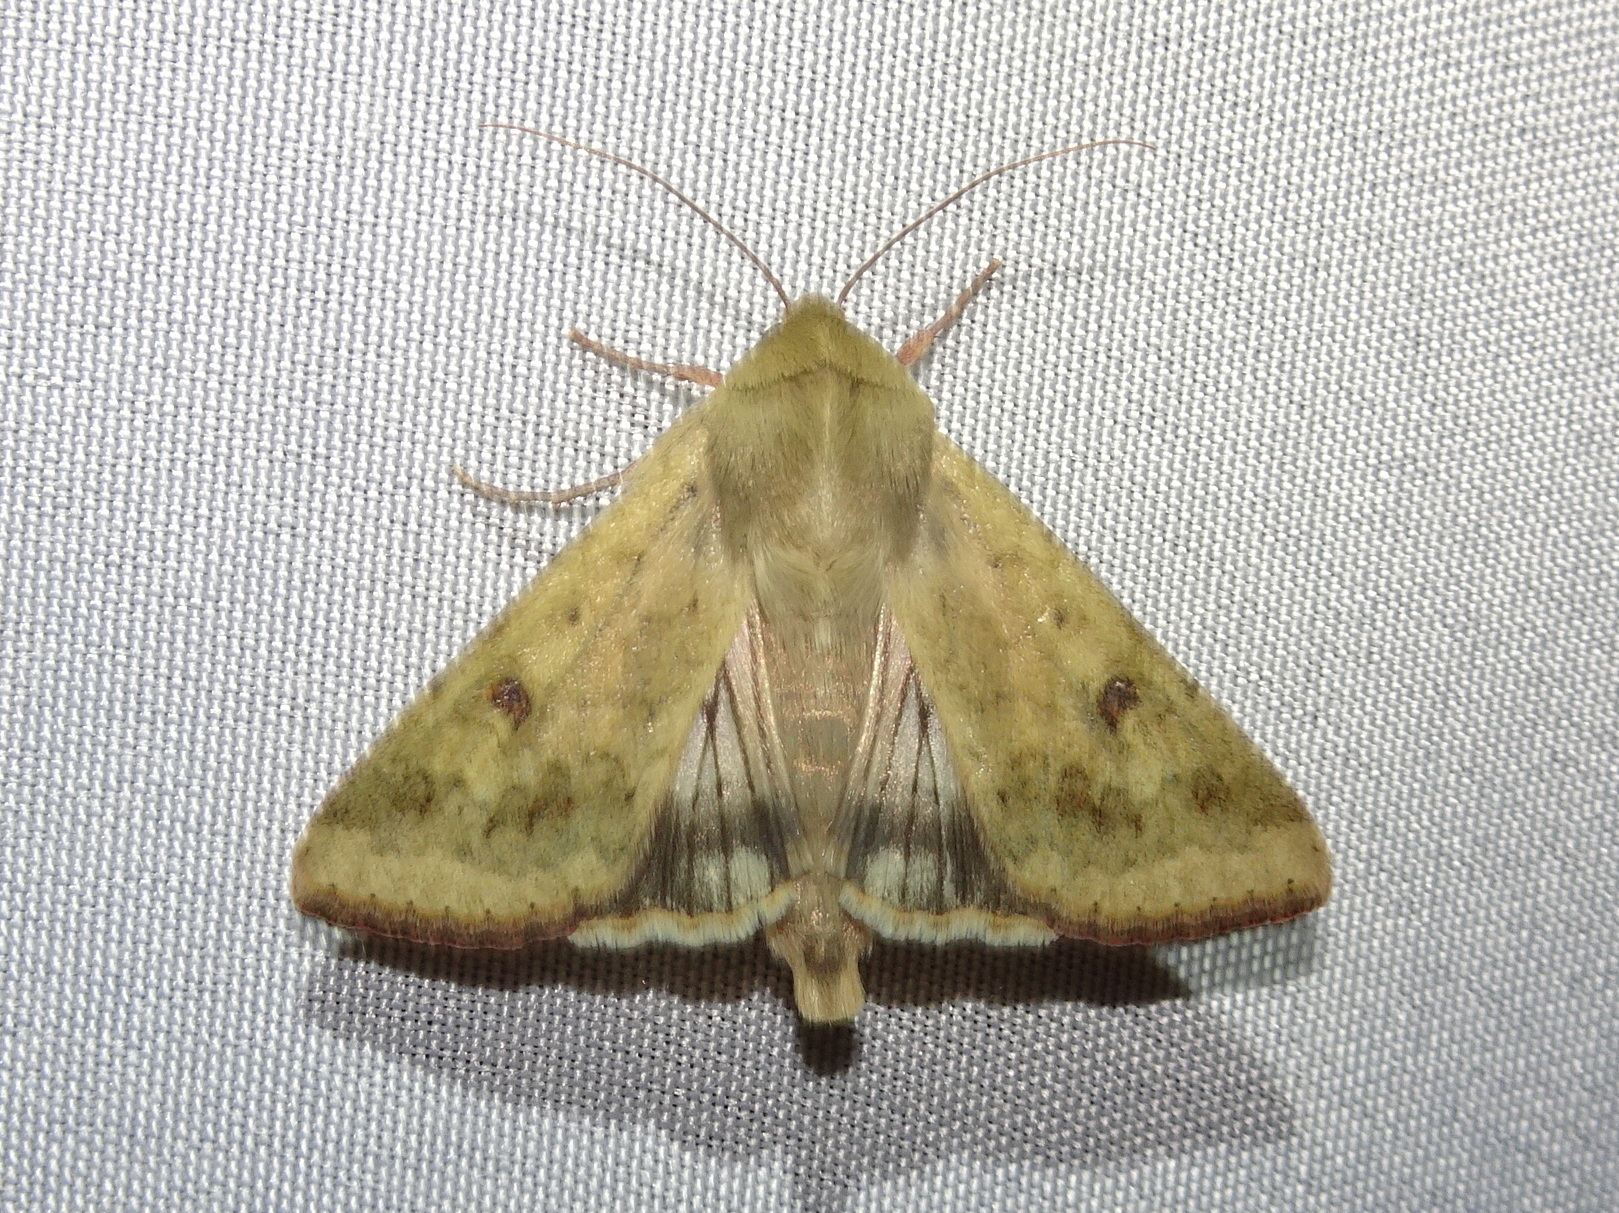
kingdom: Animalia
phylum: Arthropoda
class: Insecta
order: Lepidoptera
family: Noctuidae
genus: Helicoverpa
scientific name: Helicoverpa zea
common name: Bollworm
